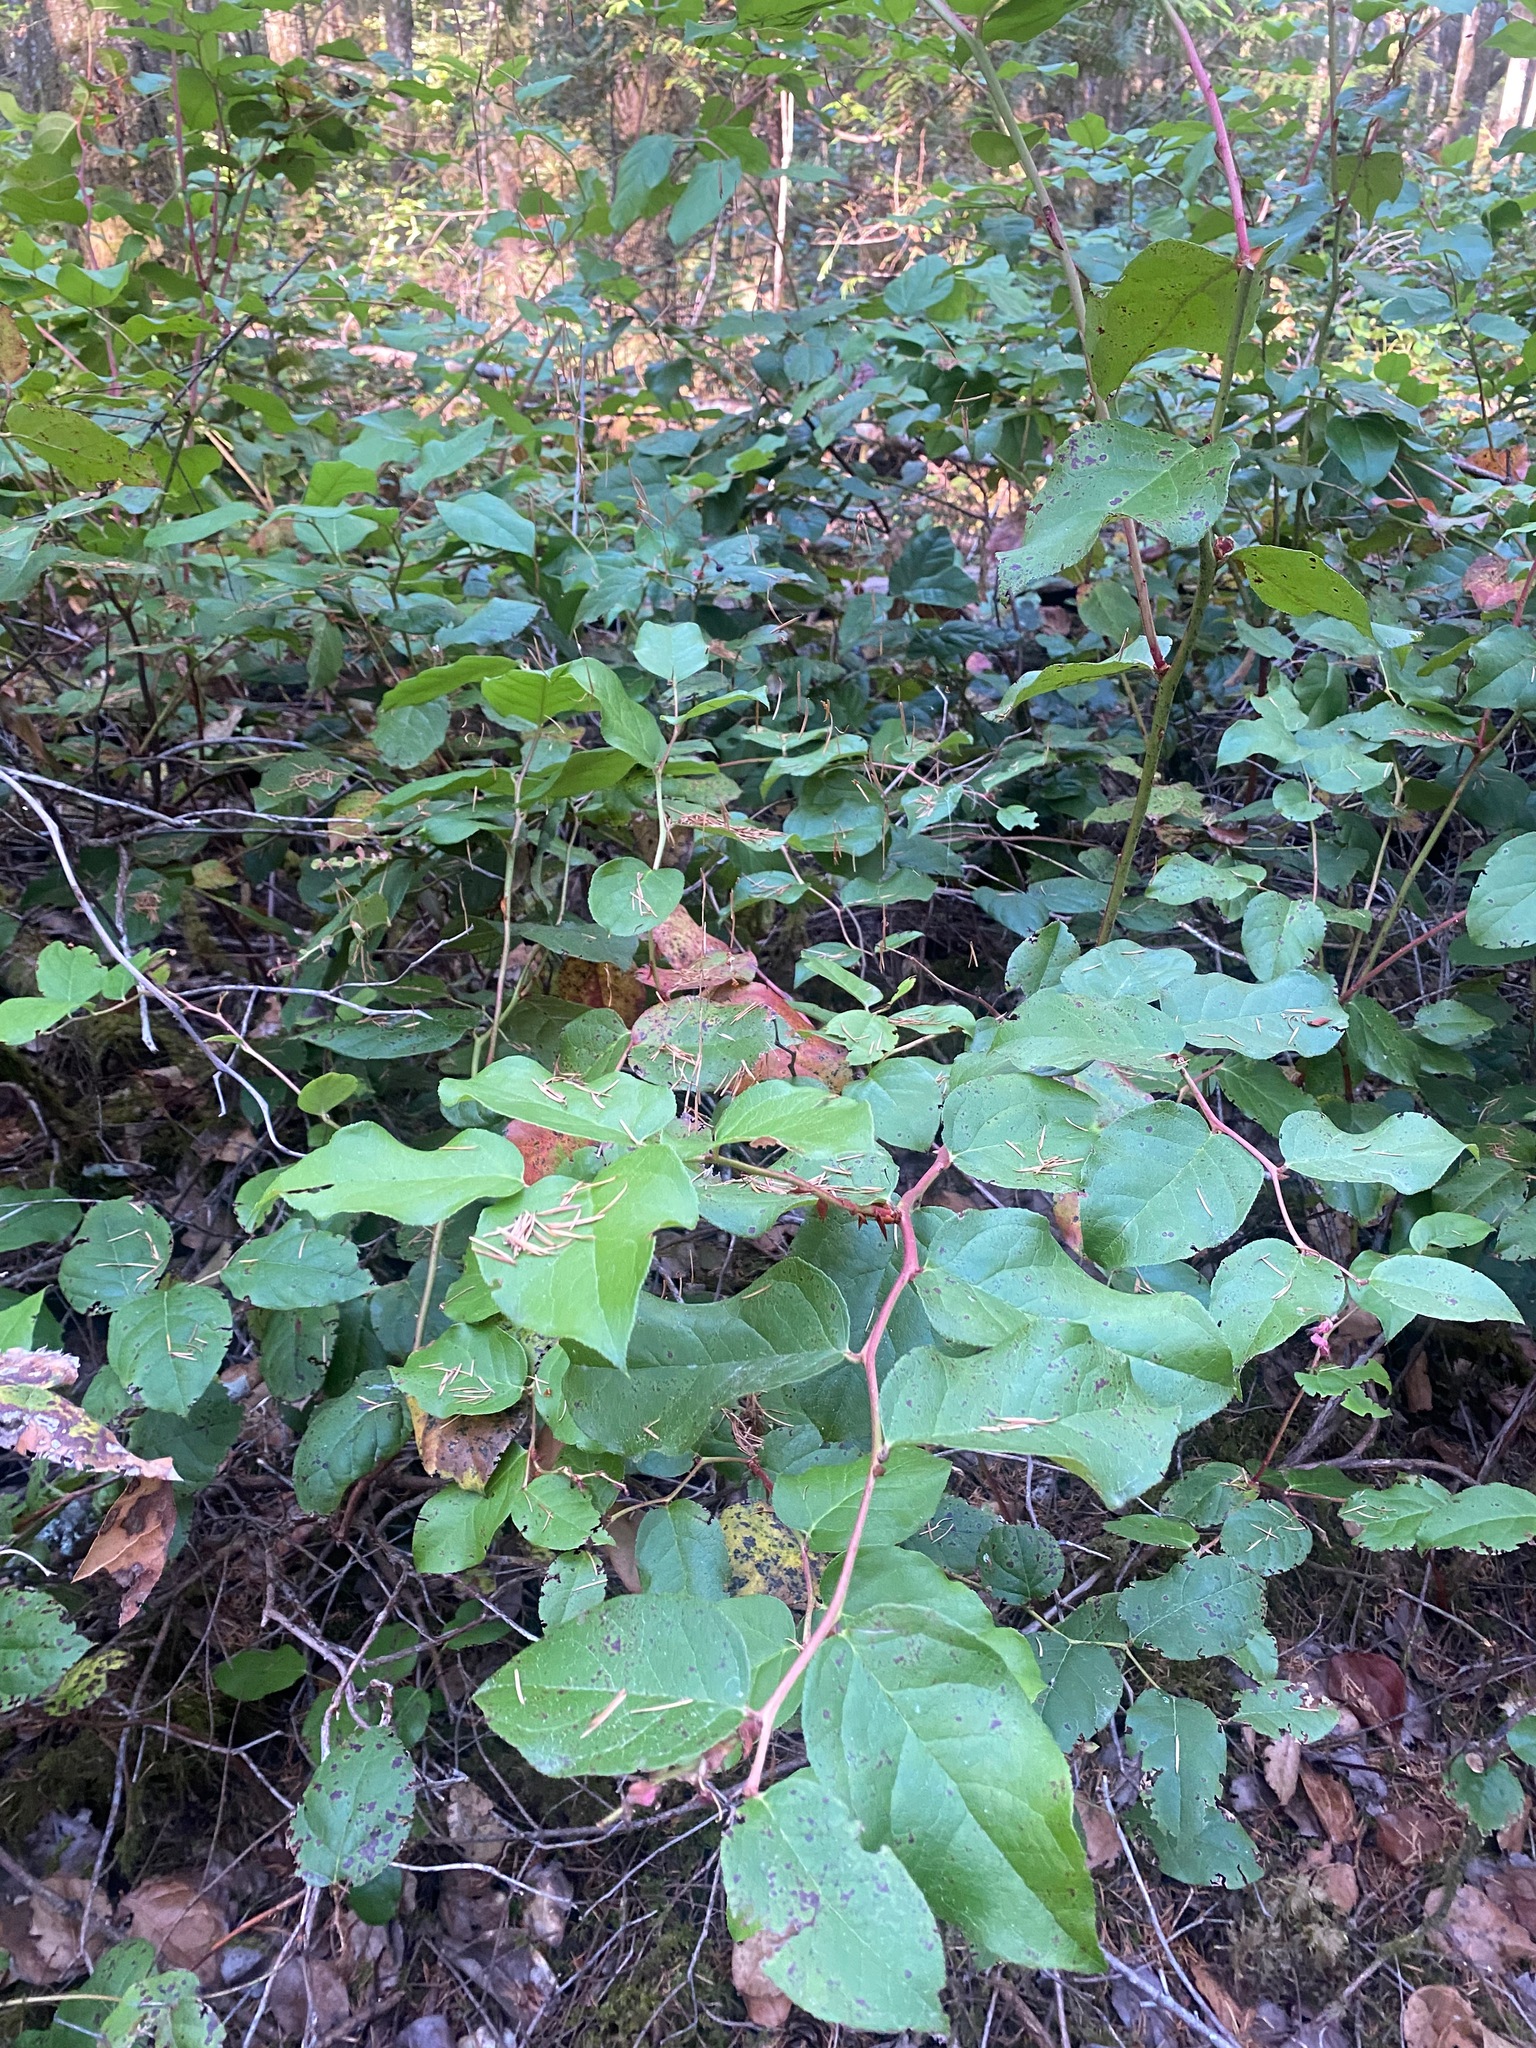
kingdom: Plantae
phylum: Tracheophyta
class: Magnoliopsida
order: Ericales
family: Ericaceae
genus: Gaultheria
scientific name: Gaultheria shallon
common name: Shallon
